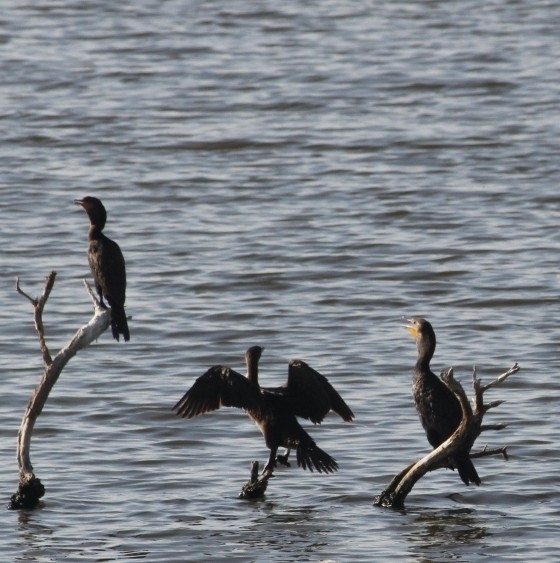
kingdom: Animalia
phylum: Chordata
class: Aves
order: Suliformes
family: Phalacrocoracidae
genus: Phalacrocorax
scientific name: Phalacrocorax auritus
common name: Double-crested cormorant
